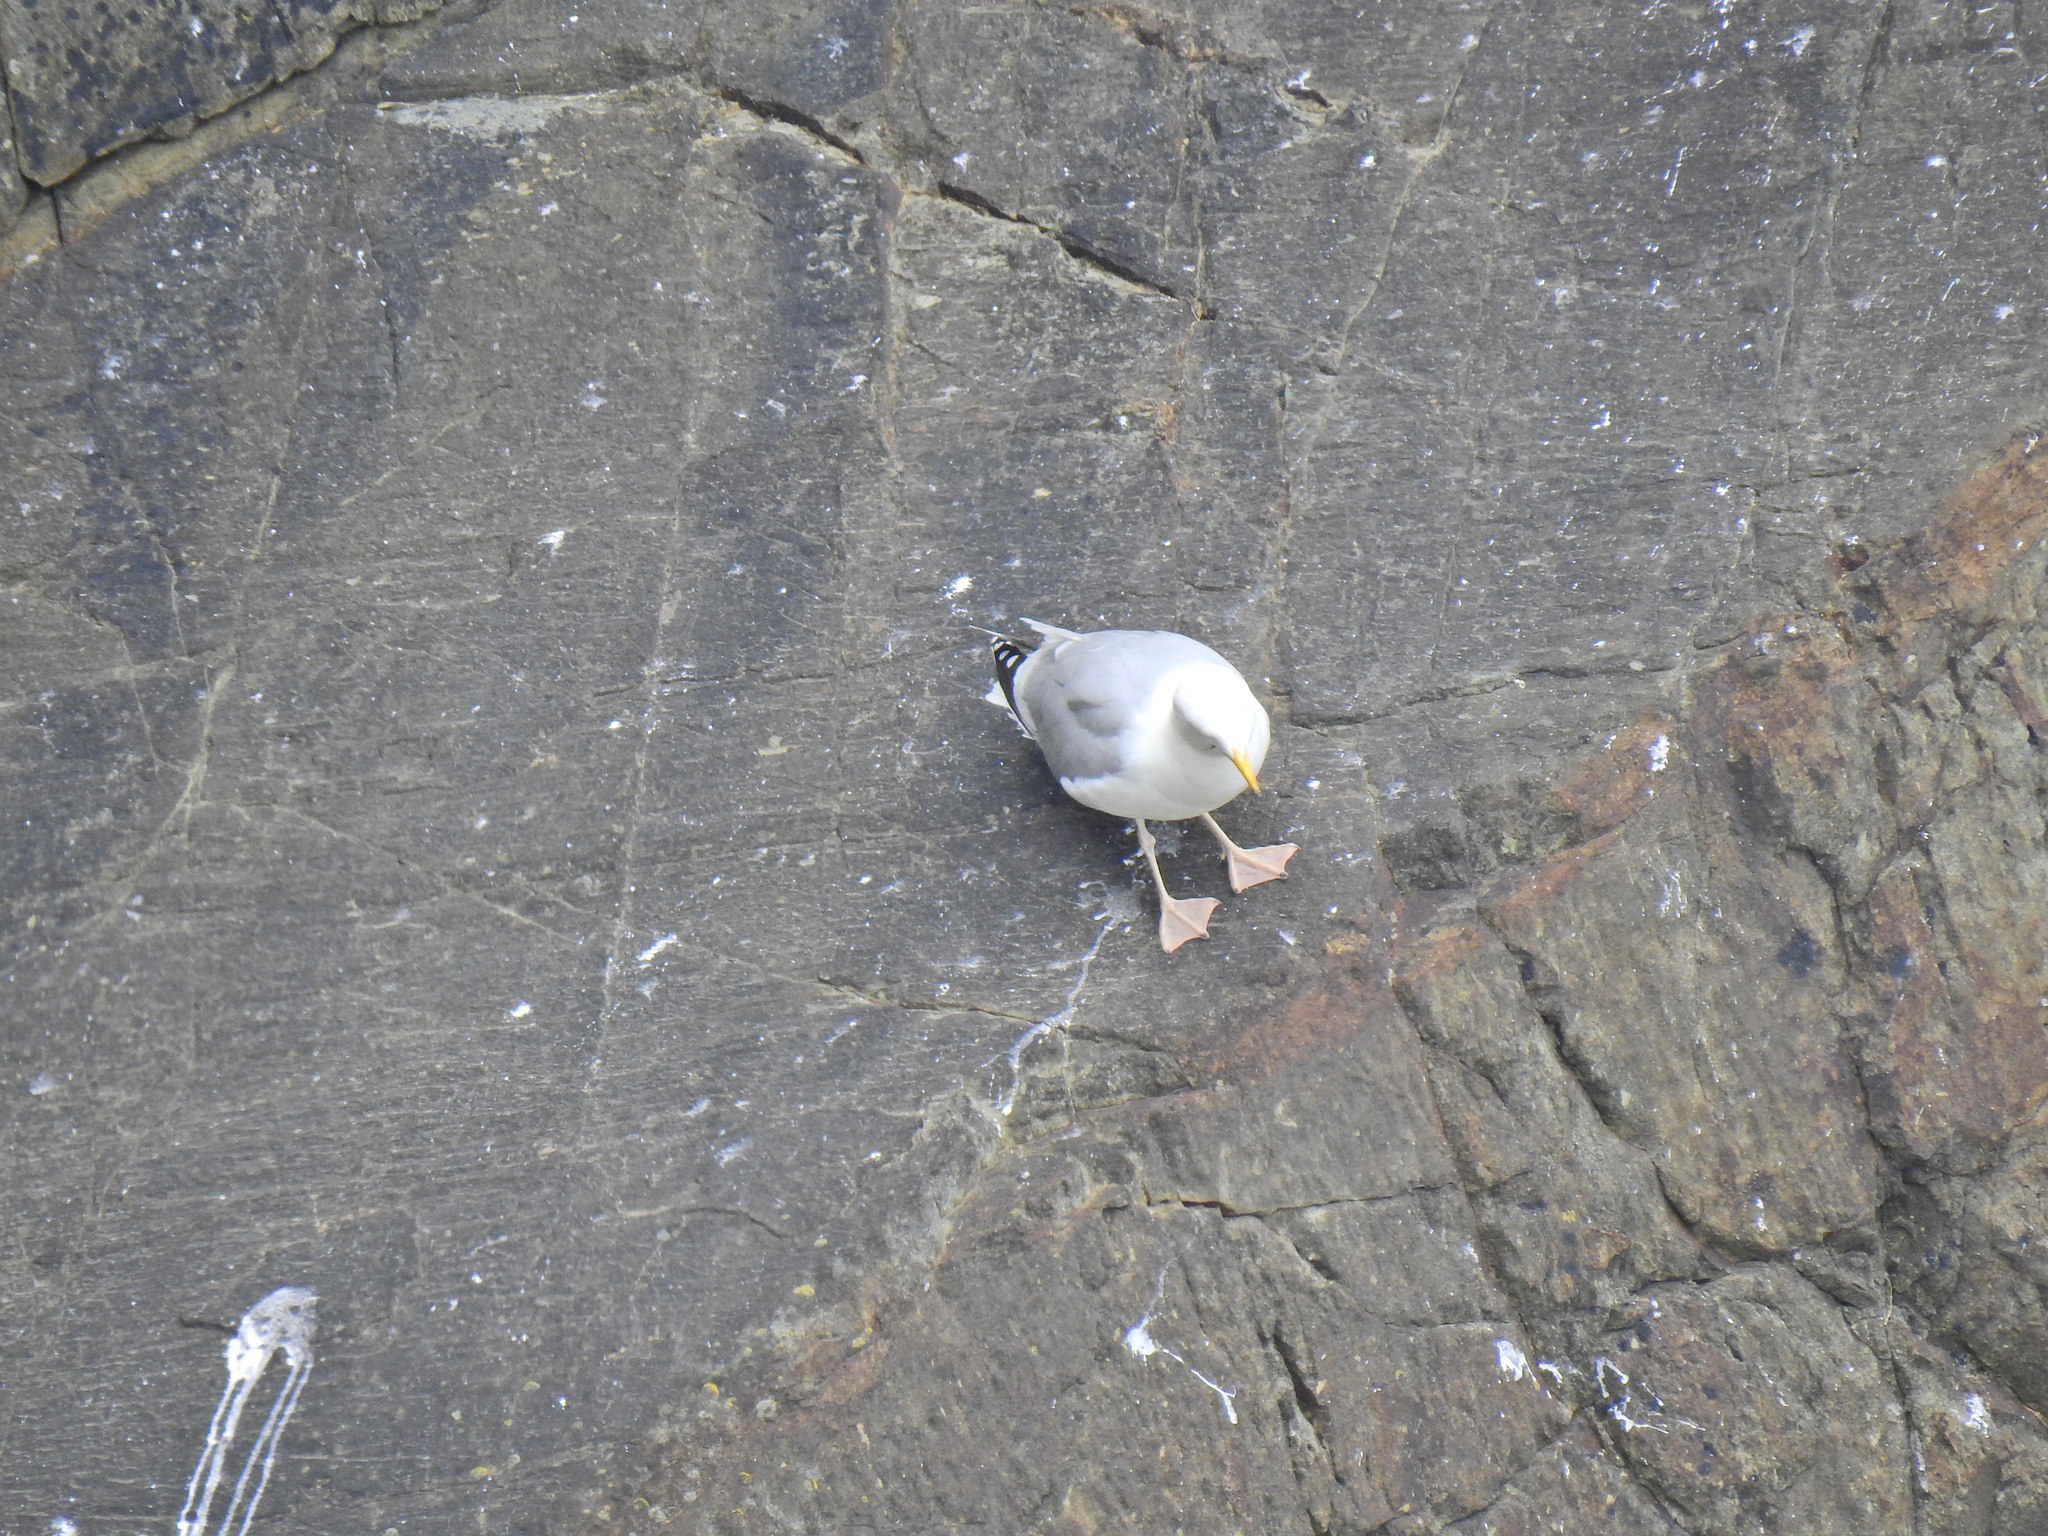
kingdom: Animalia
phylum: Chordata
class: Aves
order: Charadriiformes
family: Laridae
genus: Larus
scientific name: Larus argentatus
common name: Herring gull
